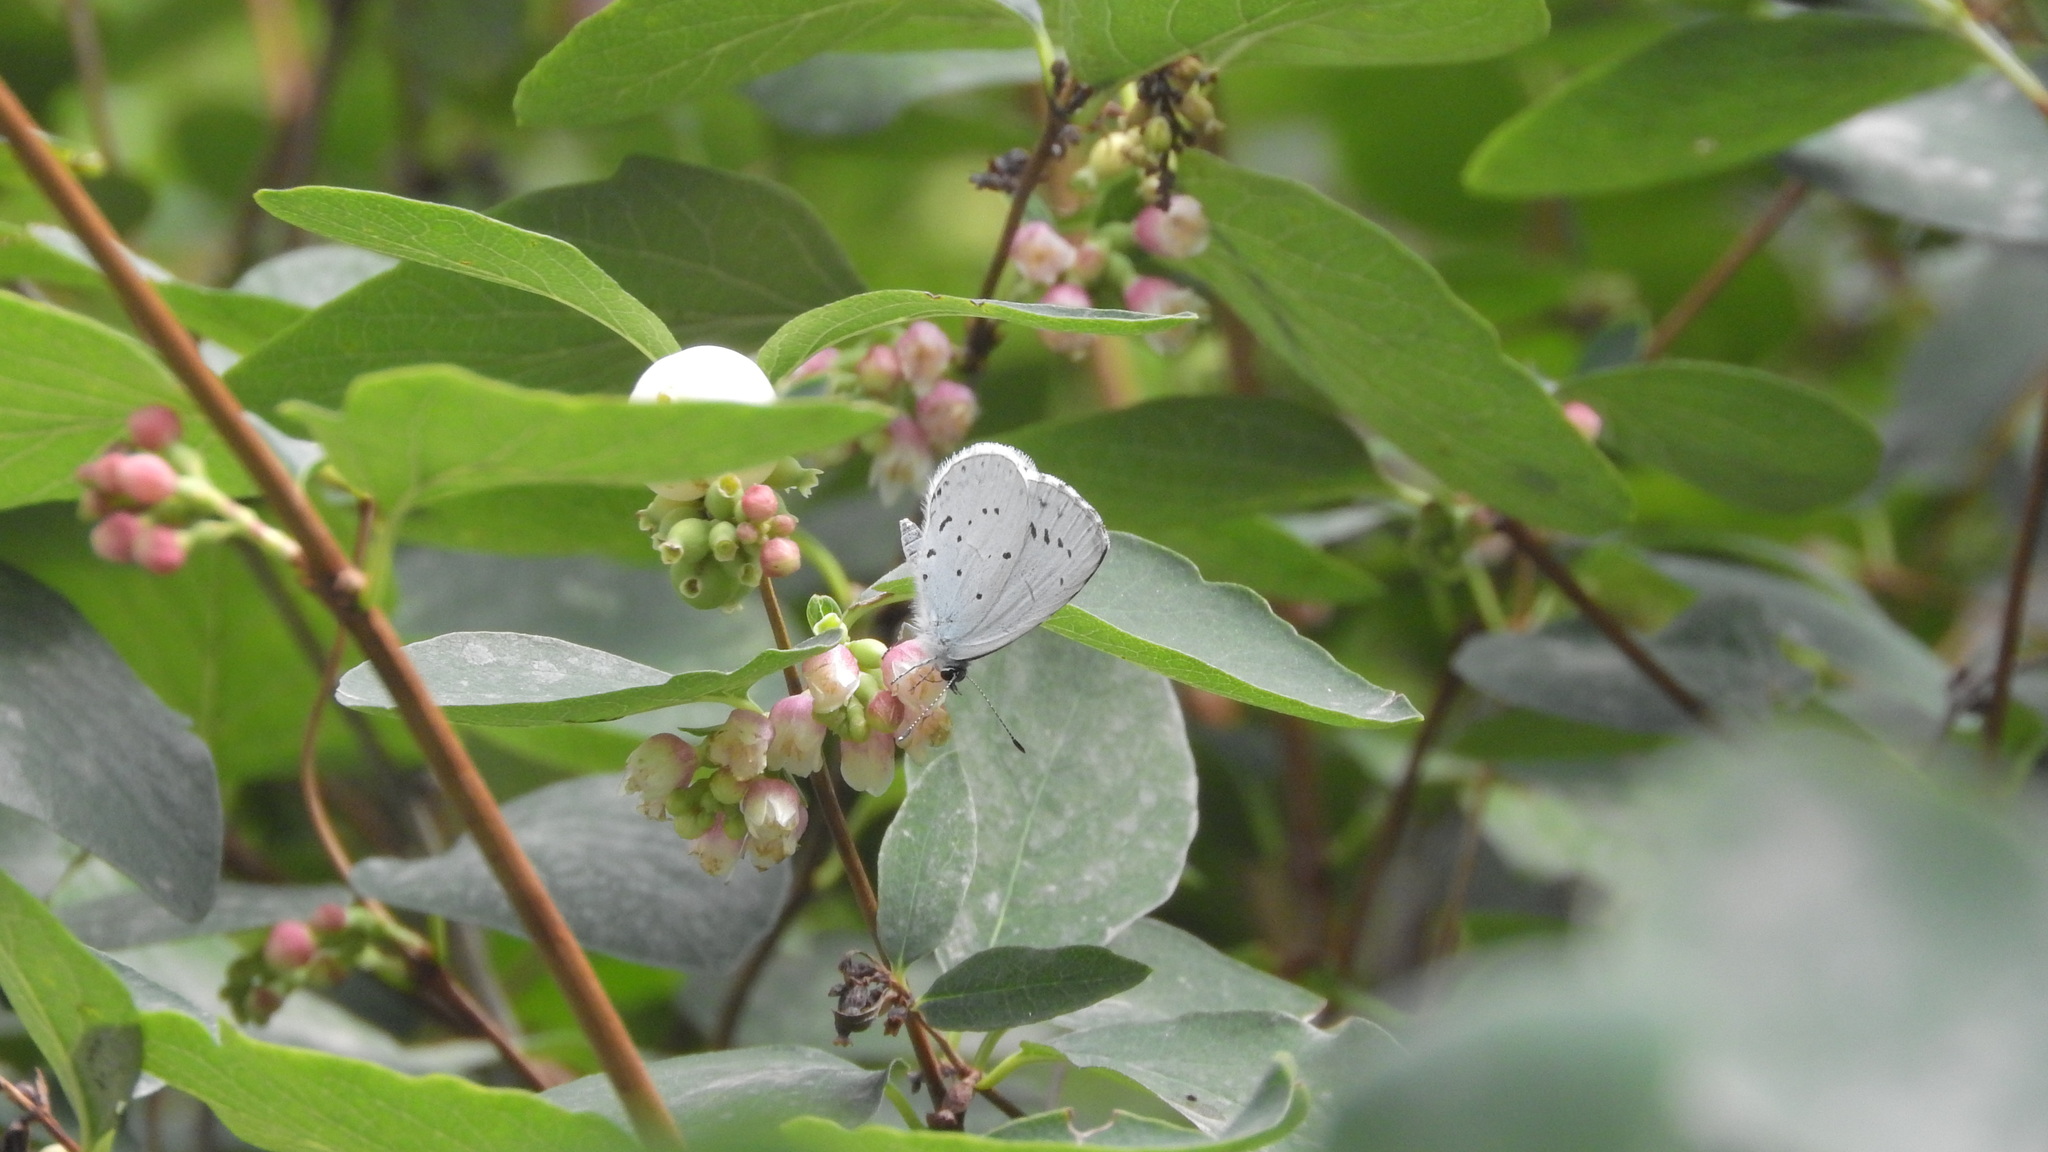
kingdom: Animalia
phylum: Arthropoda
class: Insecta
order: Lepidoptera
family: Lycaenidae
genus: Celastrina
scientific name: Celastrina argiolus
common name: Holly blue
